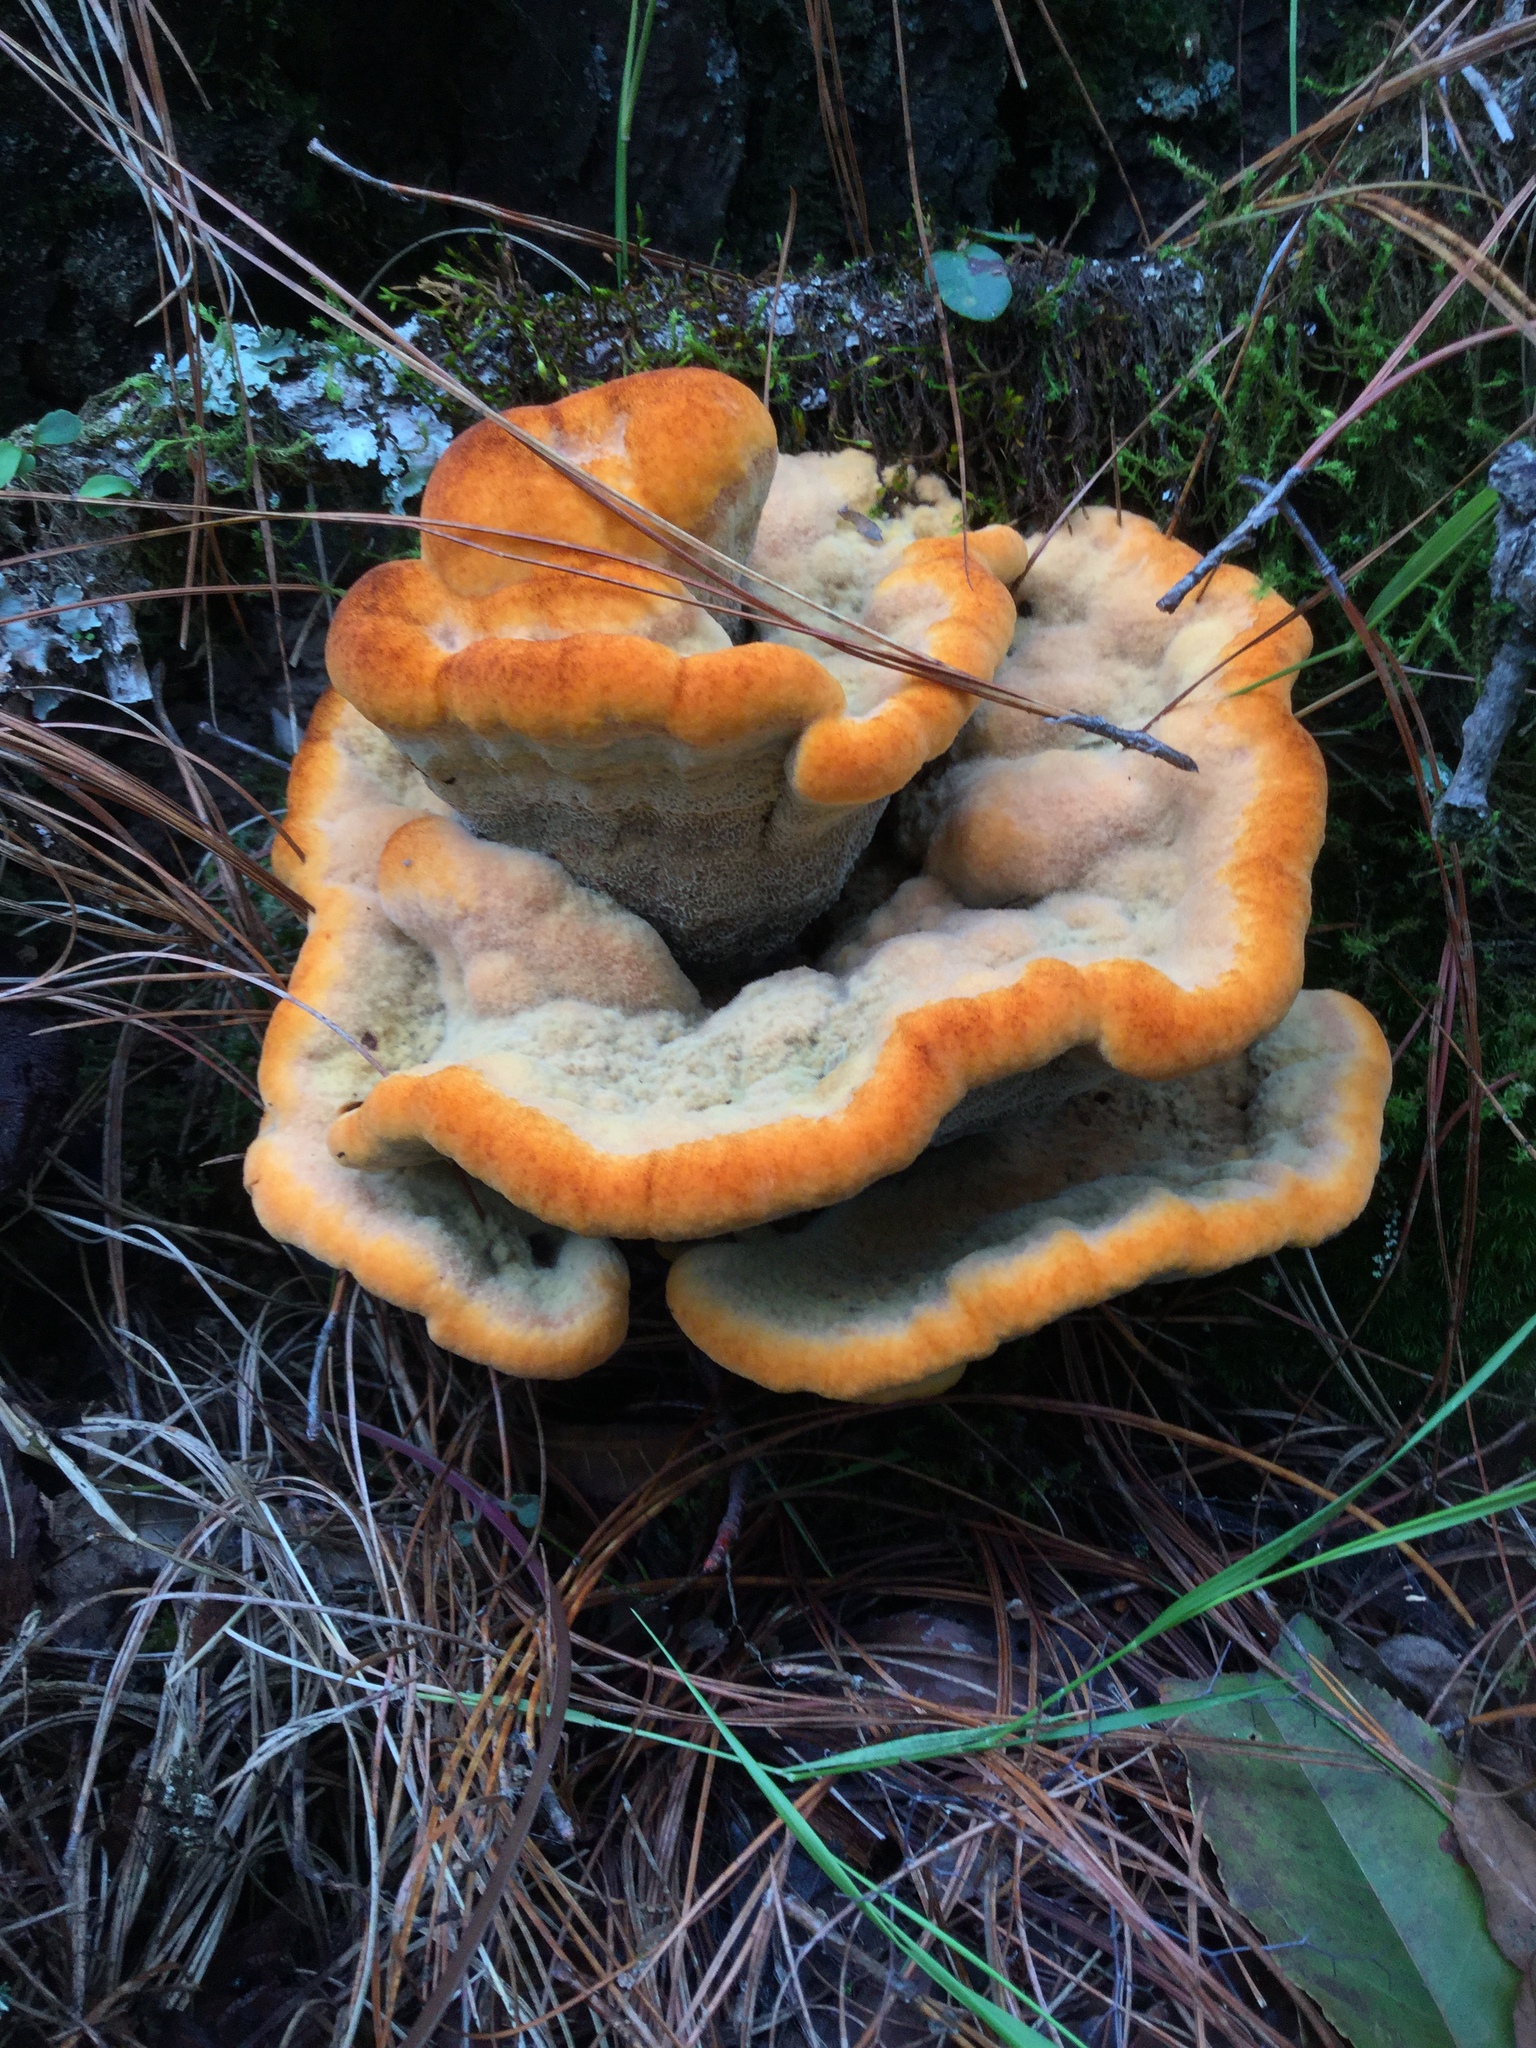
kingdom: Fungi
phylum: Basidiomycota
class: Agaricomycetes
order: Polyporales
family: Laetiporaceae
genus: Phaeolus
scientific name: Phaeolus schweinitzii
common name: Dyer's mazegill
